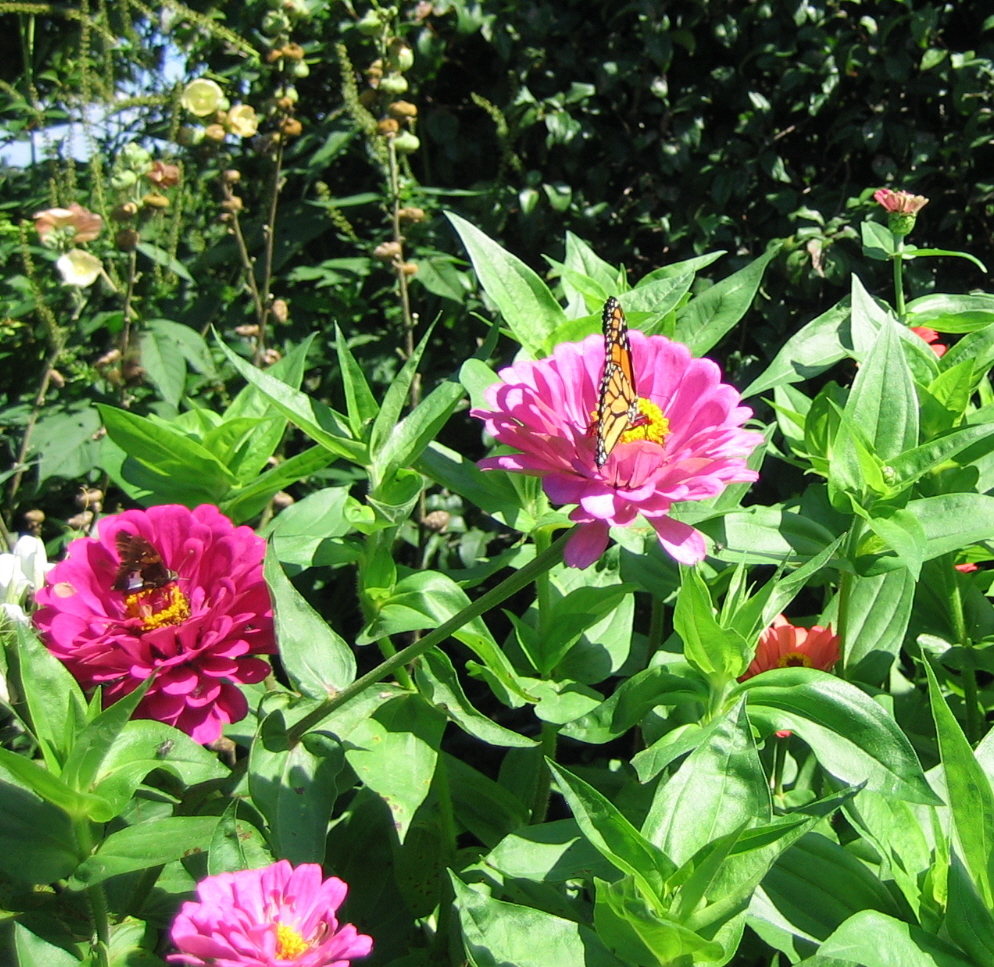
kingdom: Animalia
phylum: Arthropoda
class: Insecta
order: Lepidoptera
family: Nymphalidae
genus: Danaus
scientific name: Danaus plexippus
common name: Monarch
